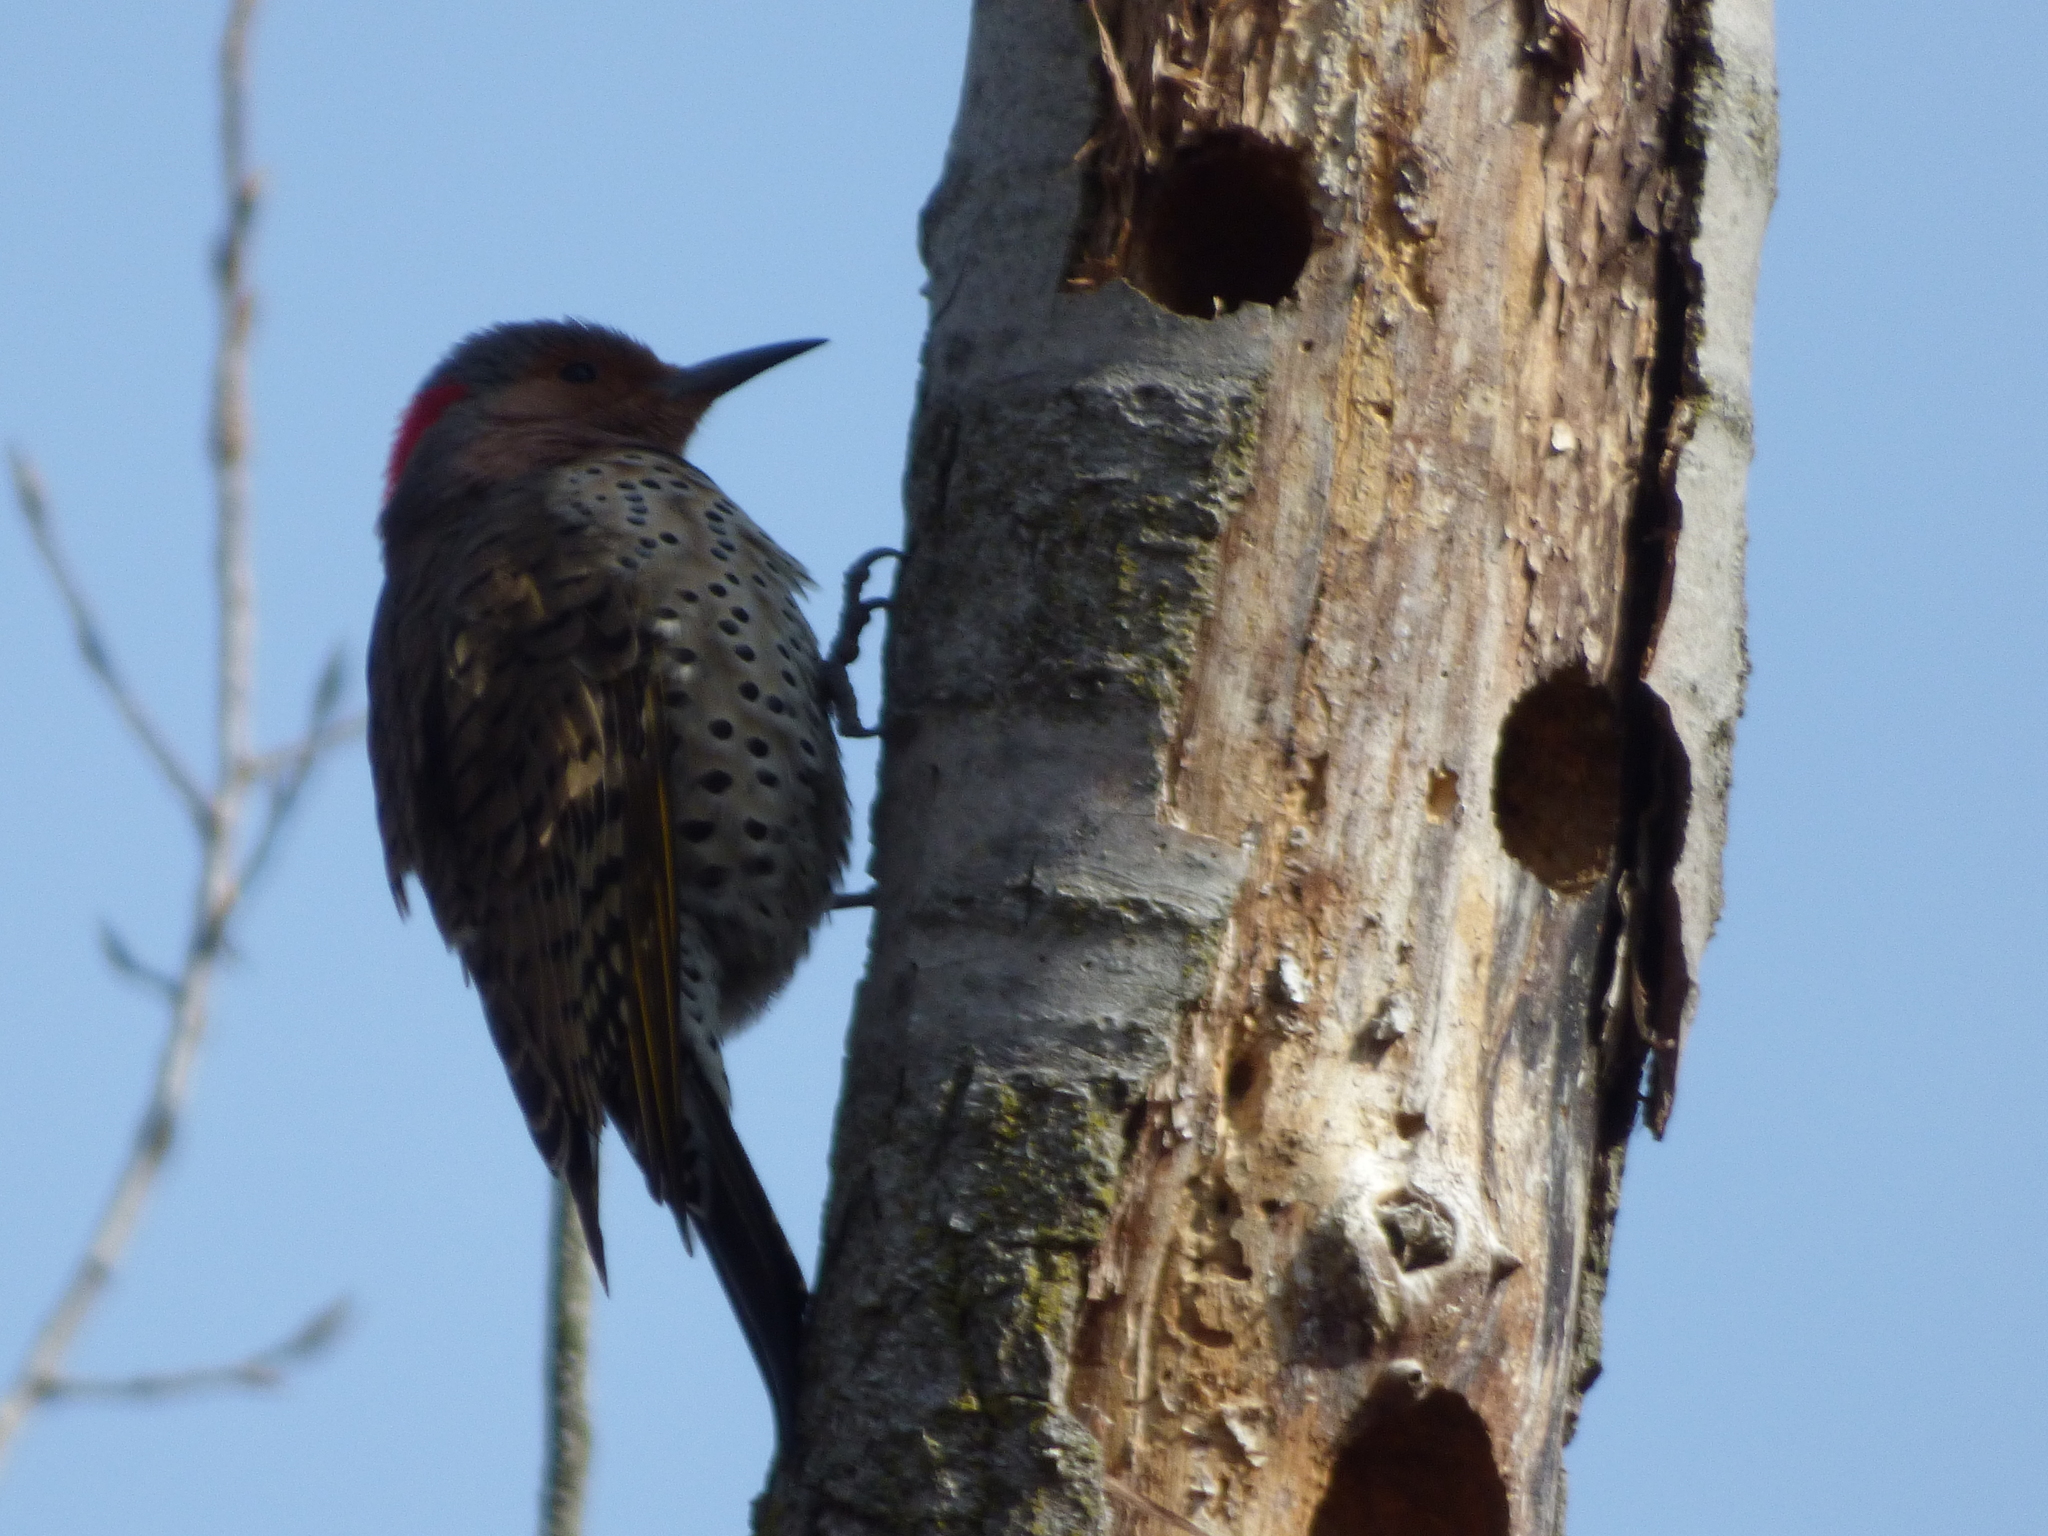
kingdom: Animalia
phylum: Chordata
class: Aves
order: Piciformes
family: Picidae
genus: Colaptes
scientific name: Colaptes auratus
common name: Northern flicker
